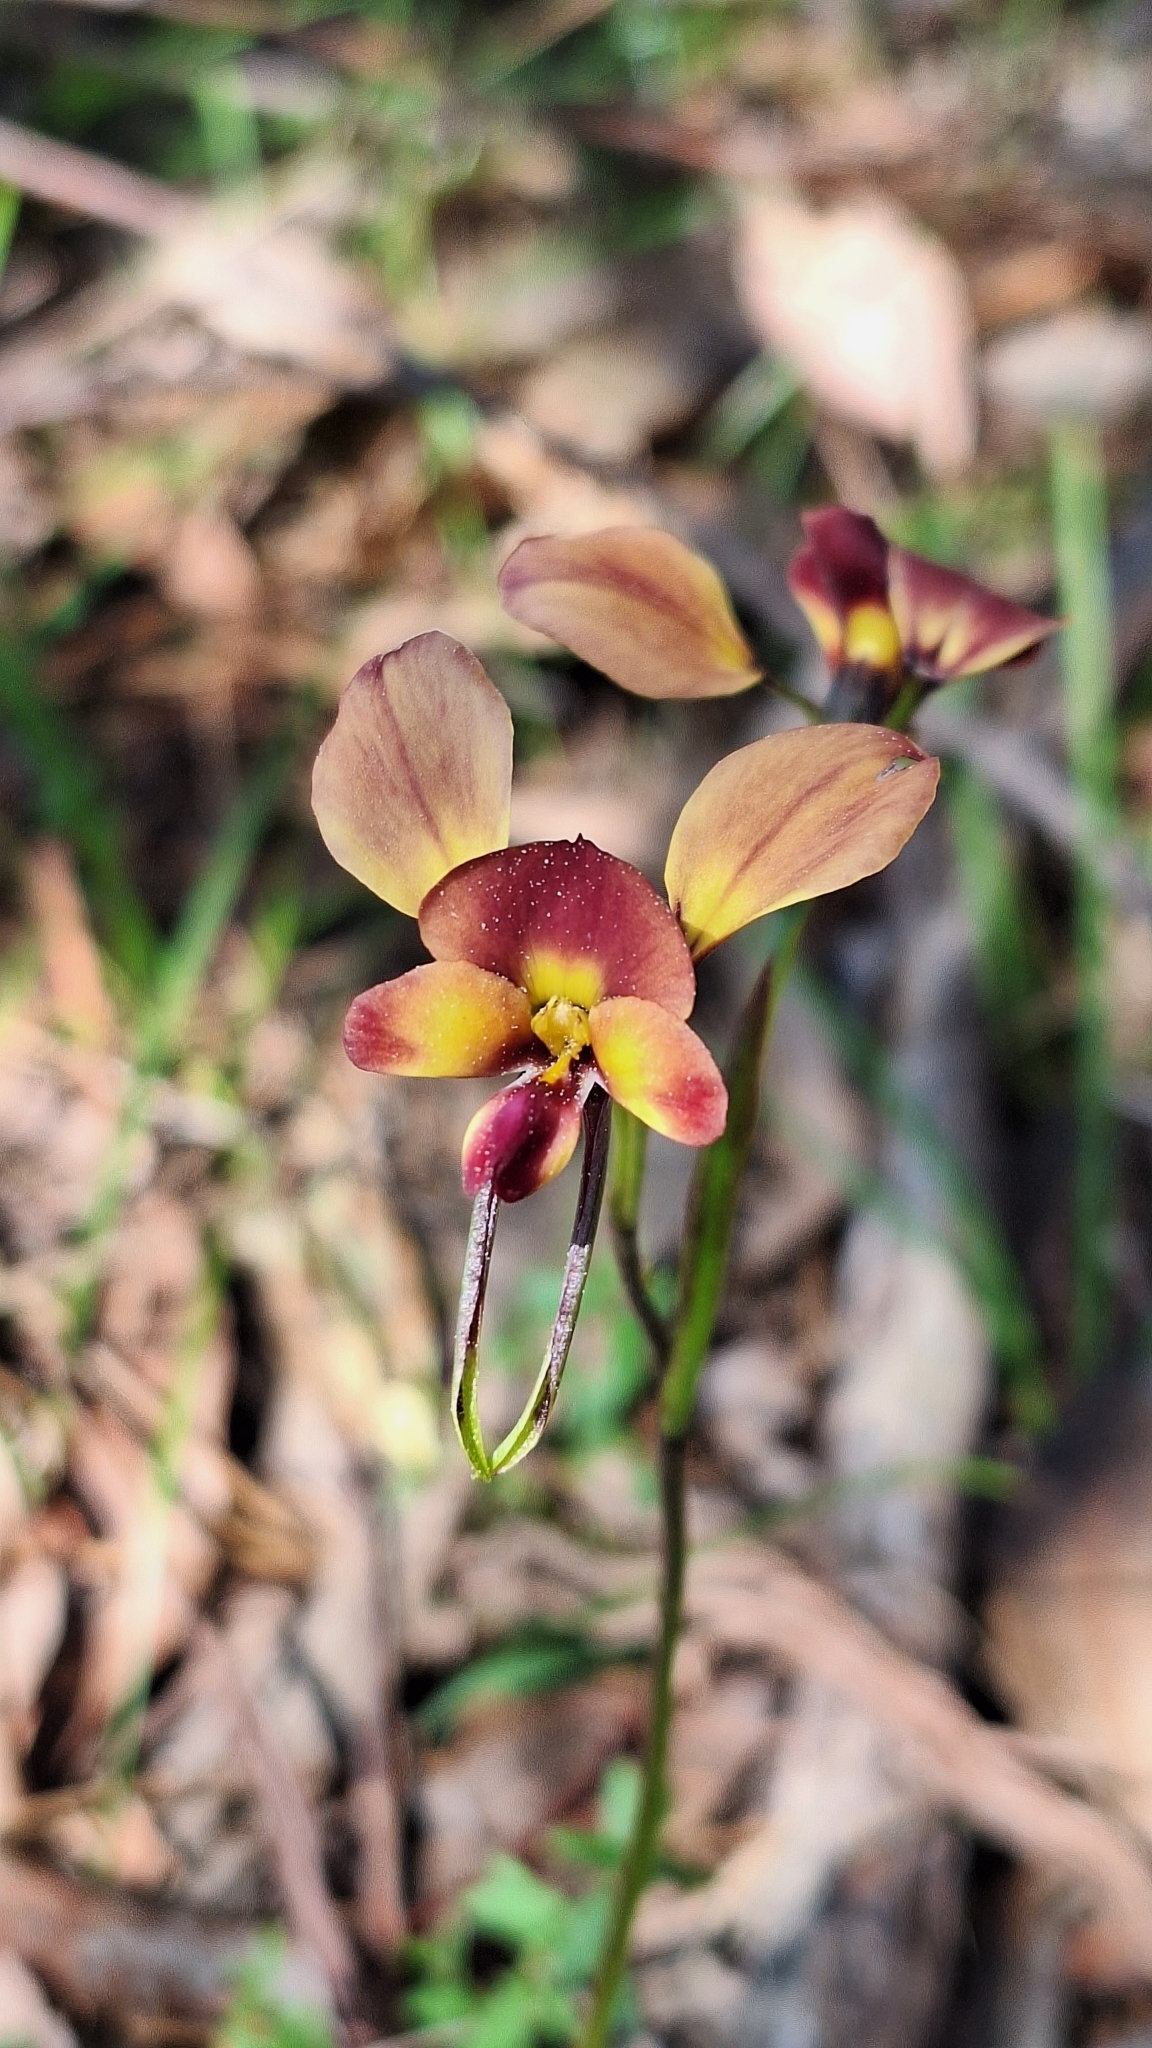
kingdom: Plantae
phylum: Tracheophyta
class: Liliopsida
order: Asparagales
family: Orchidaceae
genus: Diuris
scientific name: Diuris orientis
